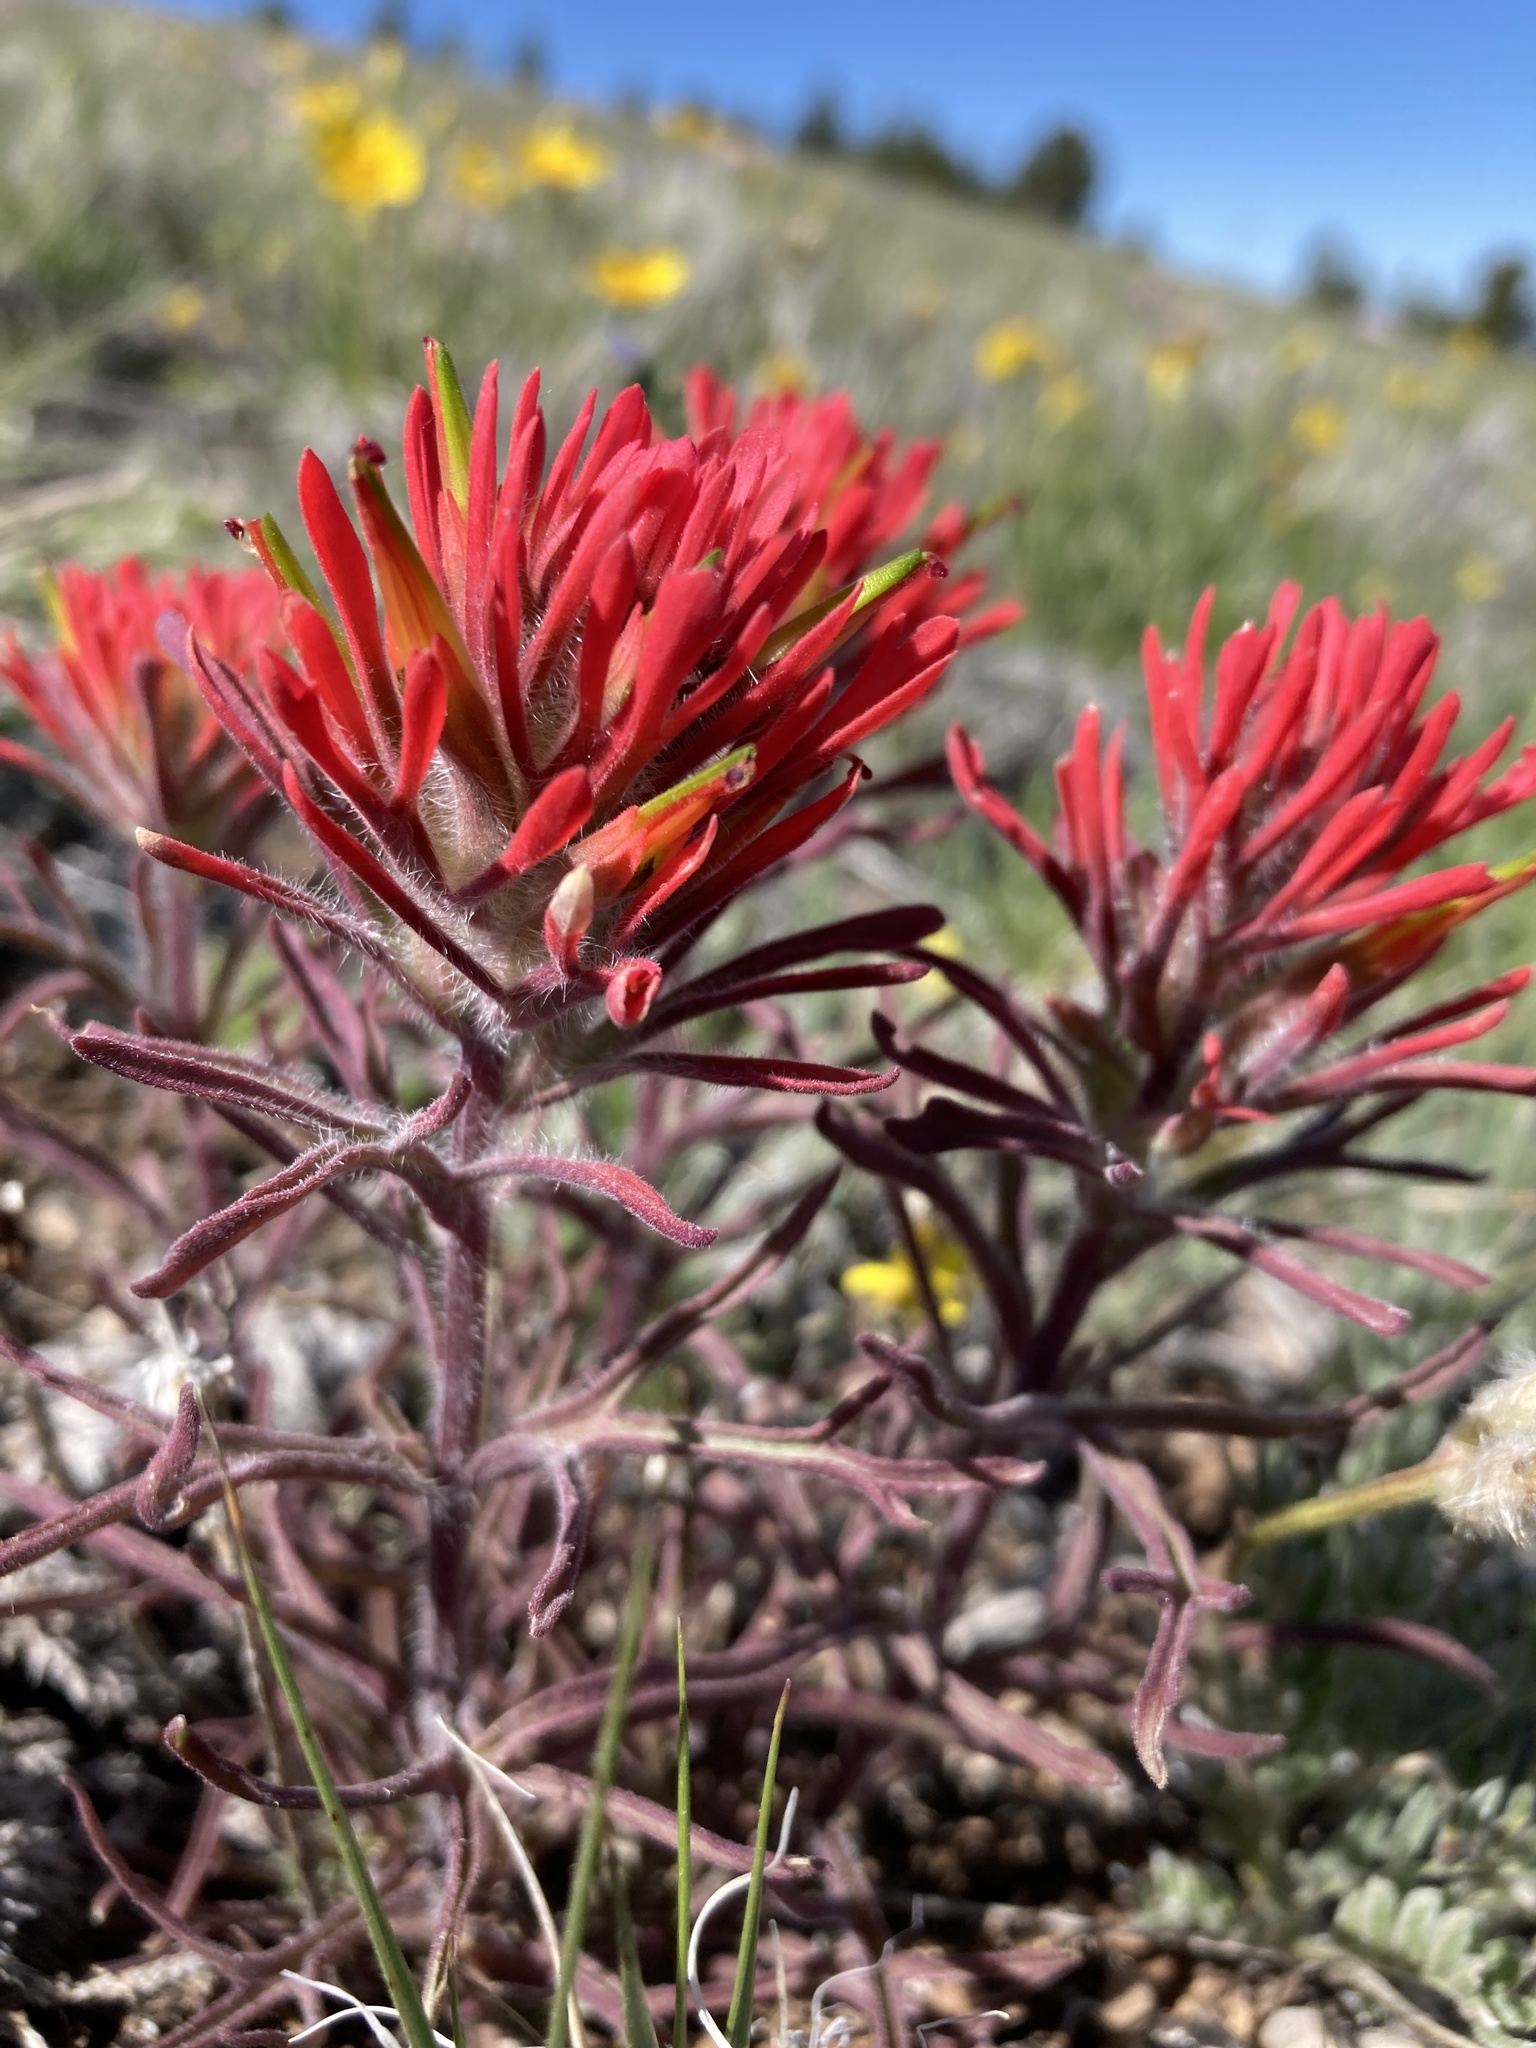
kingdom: Plantae
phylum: Tracheophyta
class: Magnoliopsida
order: Lamiales
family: Orobanchaceae
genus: Castilleja
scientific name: Castilleja chromosa
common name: Desert paintbrush
